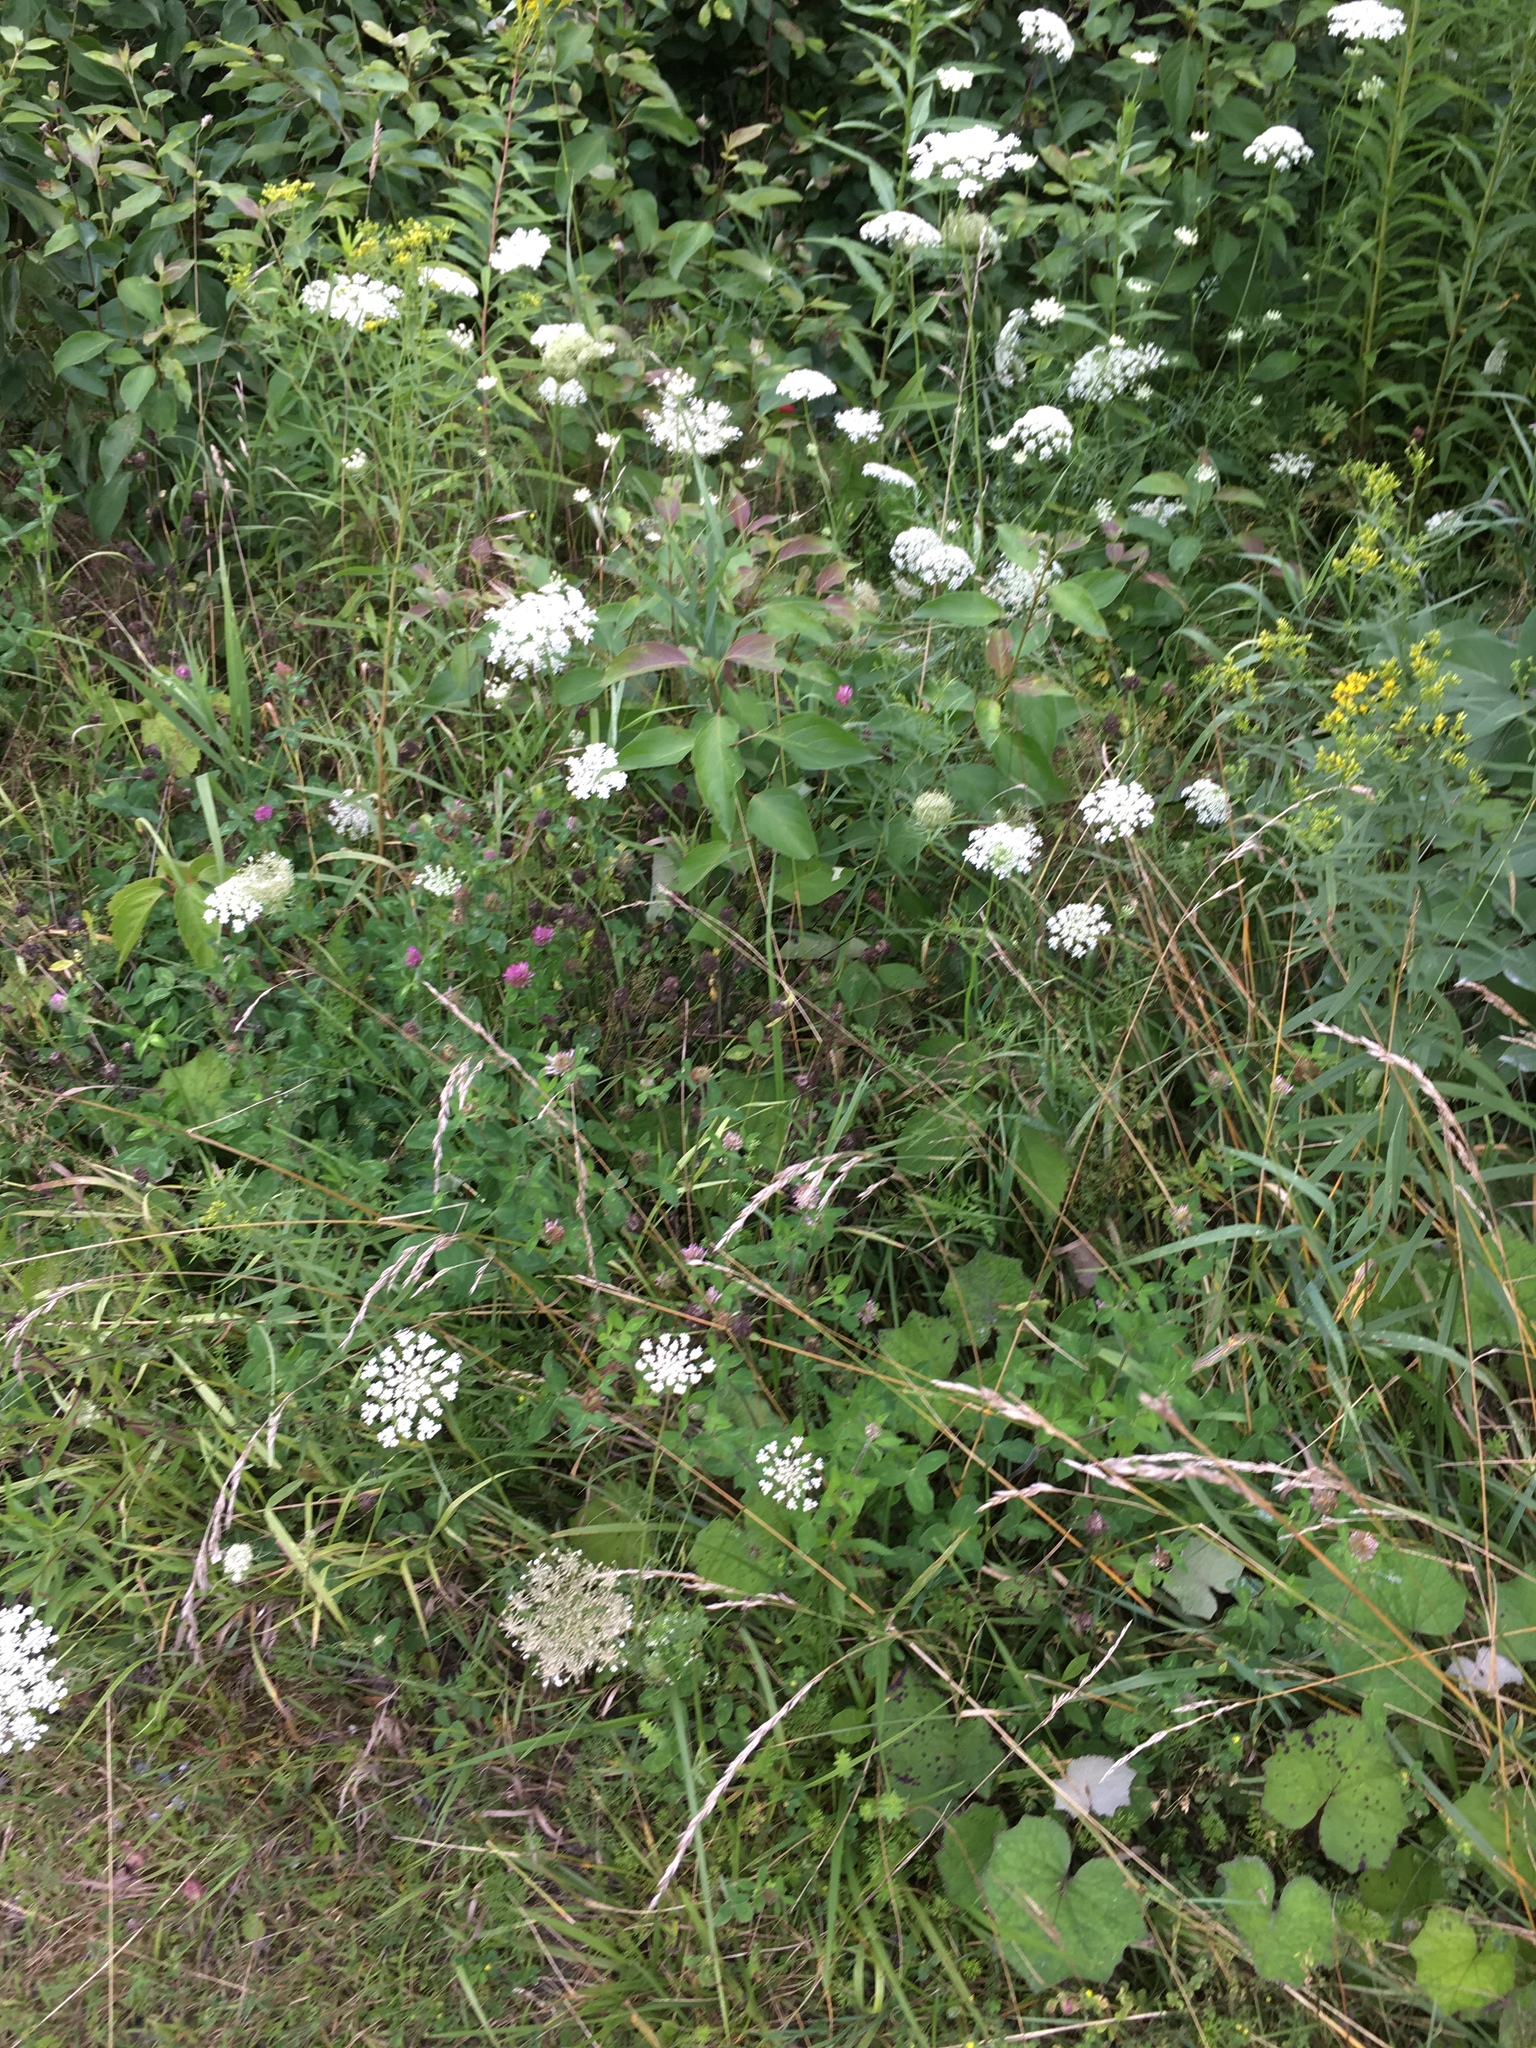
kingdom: Plantae
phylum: Tracheophyta
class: Magnoliopsida
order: Apiales
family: Apiaceae
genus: Daucus
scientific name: Daucus carota
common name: Wild carrot
